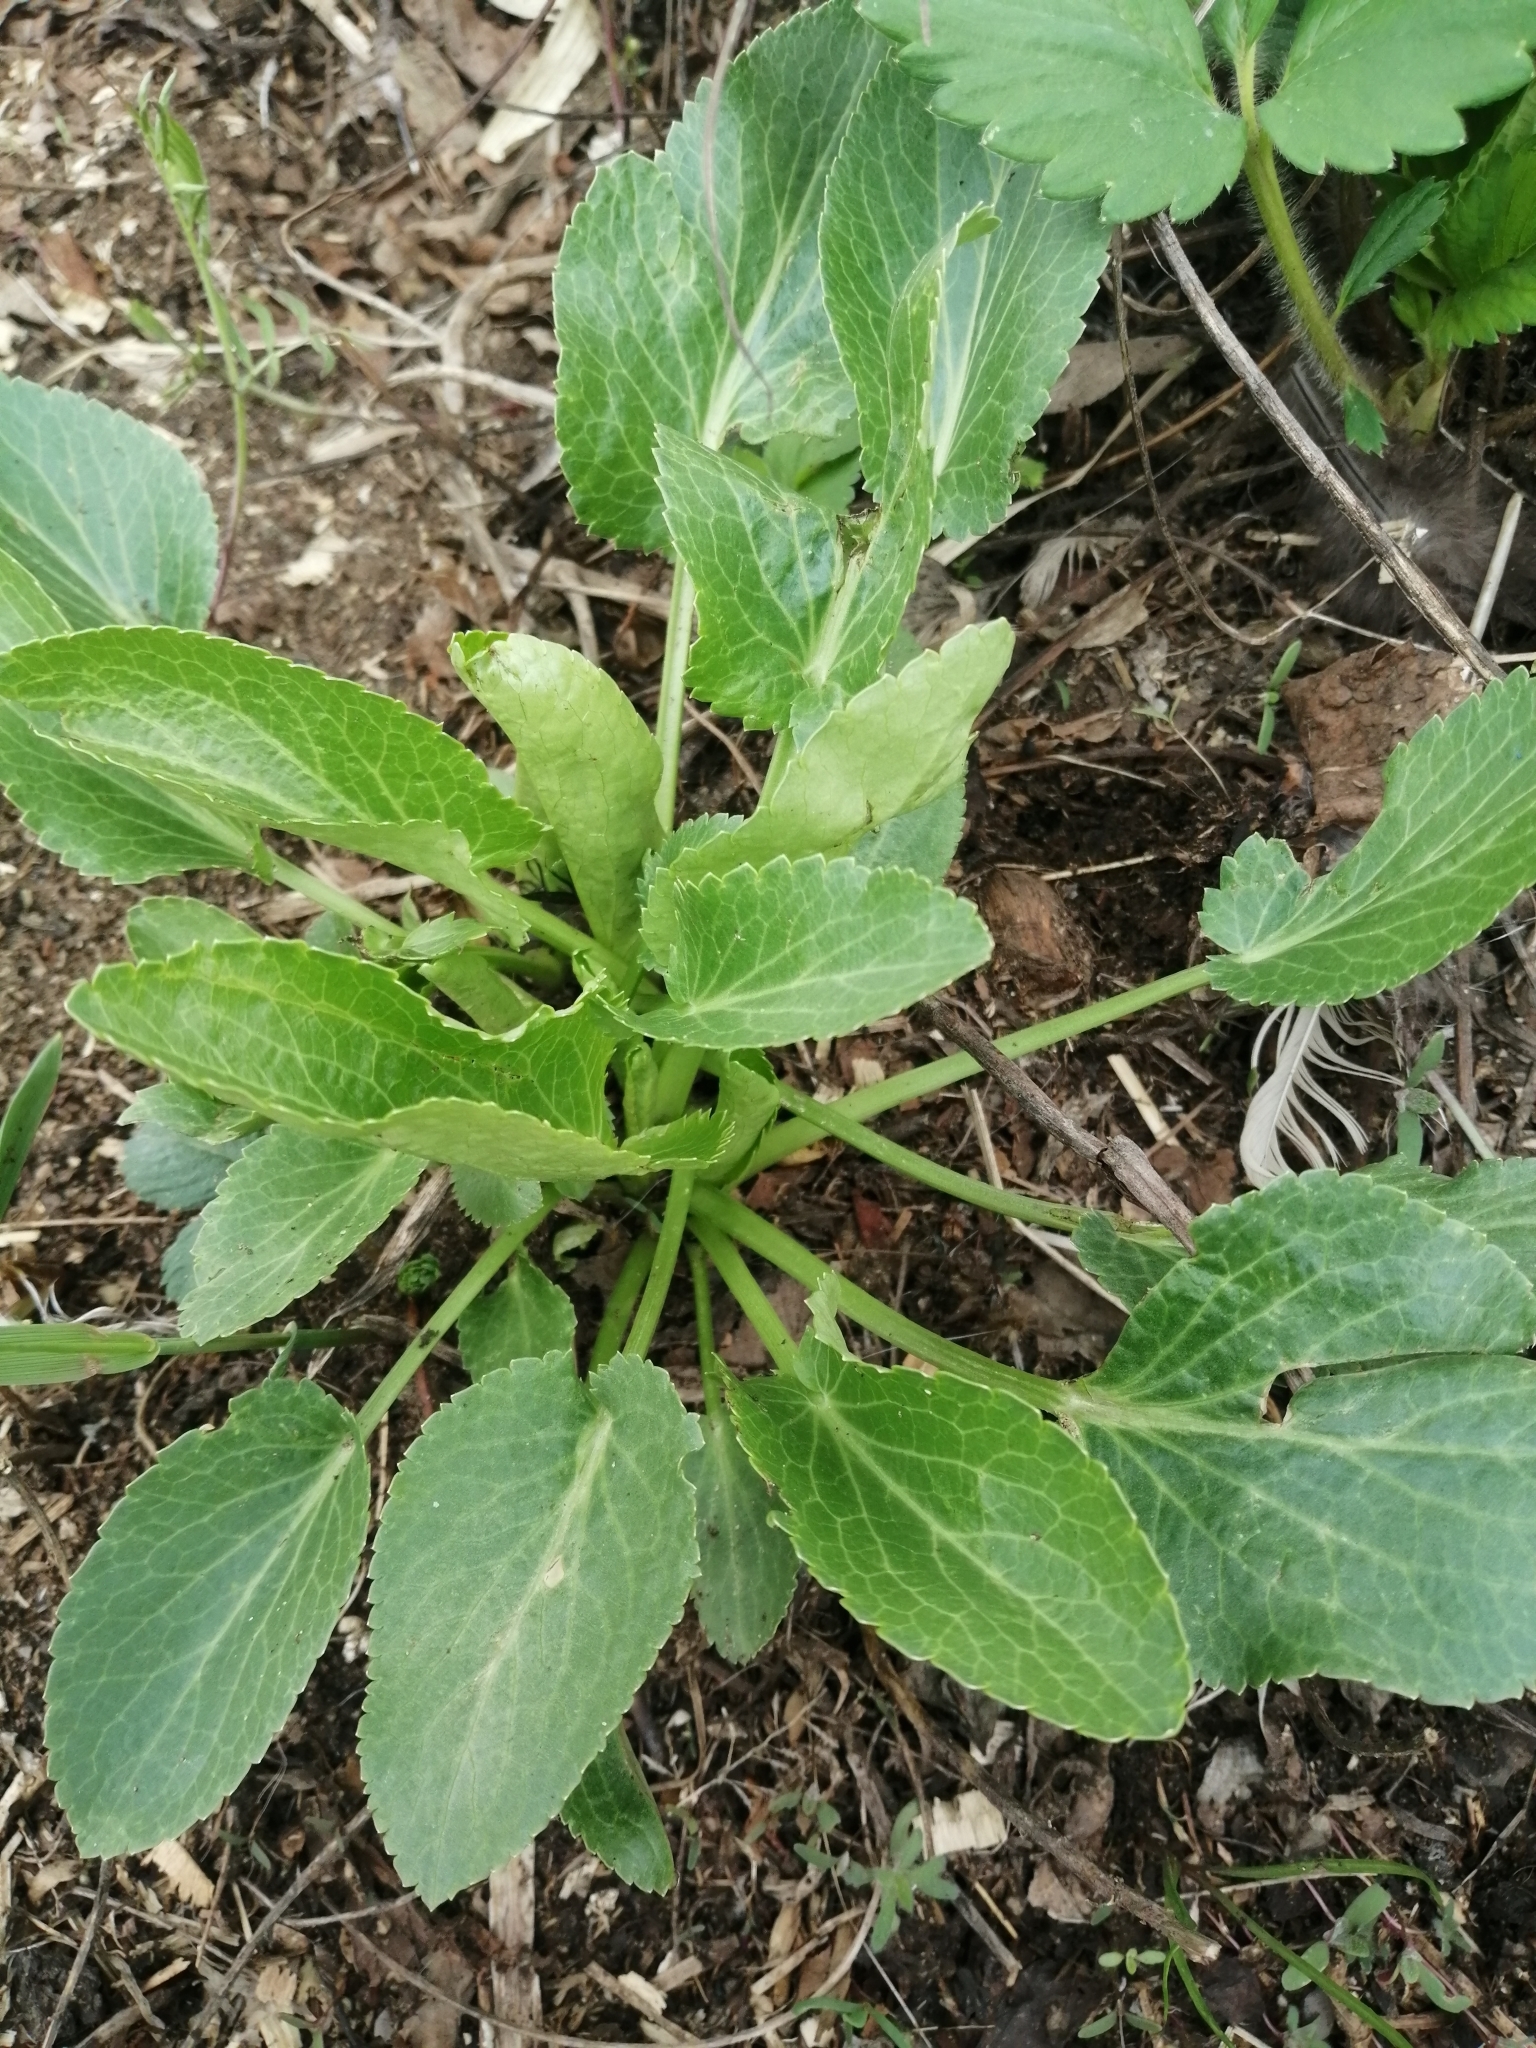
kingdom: Plantae
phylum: Tracheophyta
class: Magnoliopsida
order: Apiales
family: Apiaceae
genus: Eryngium
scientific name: Eryngium planum
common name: Blue eryngo
